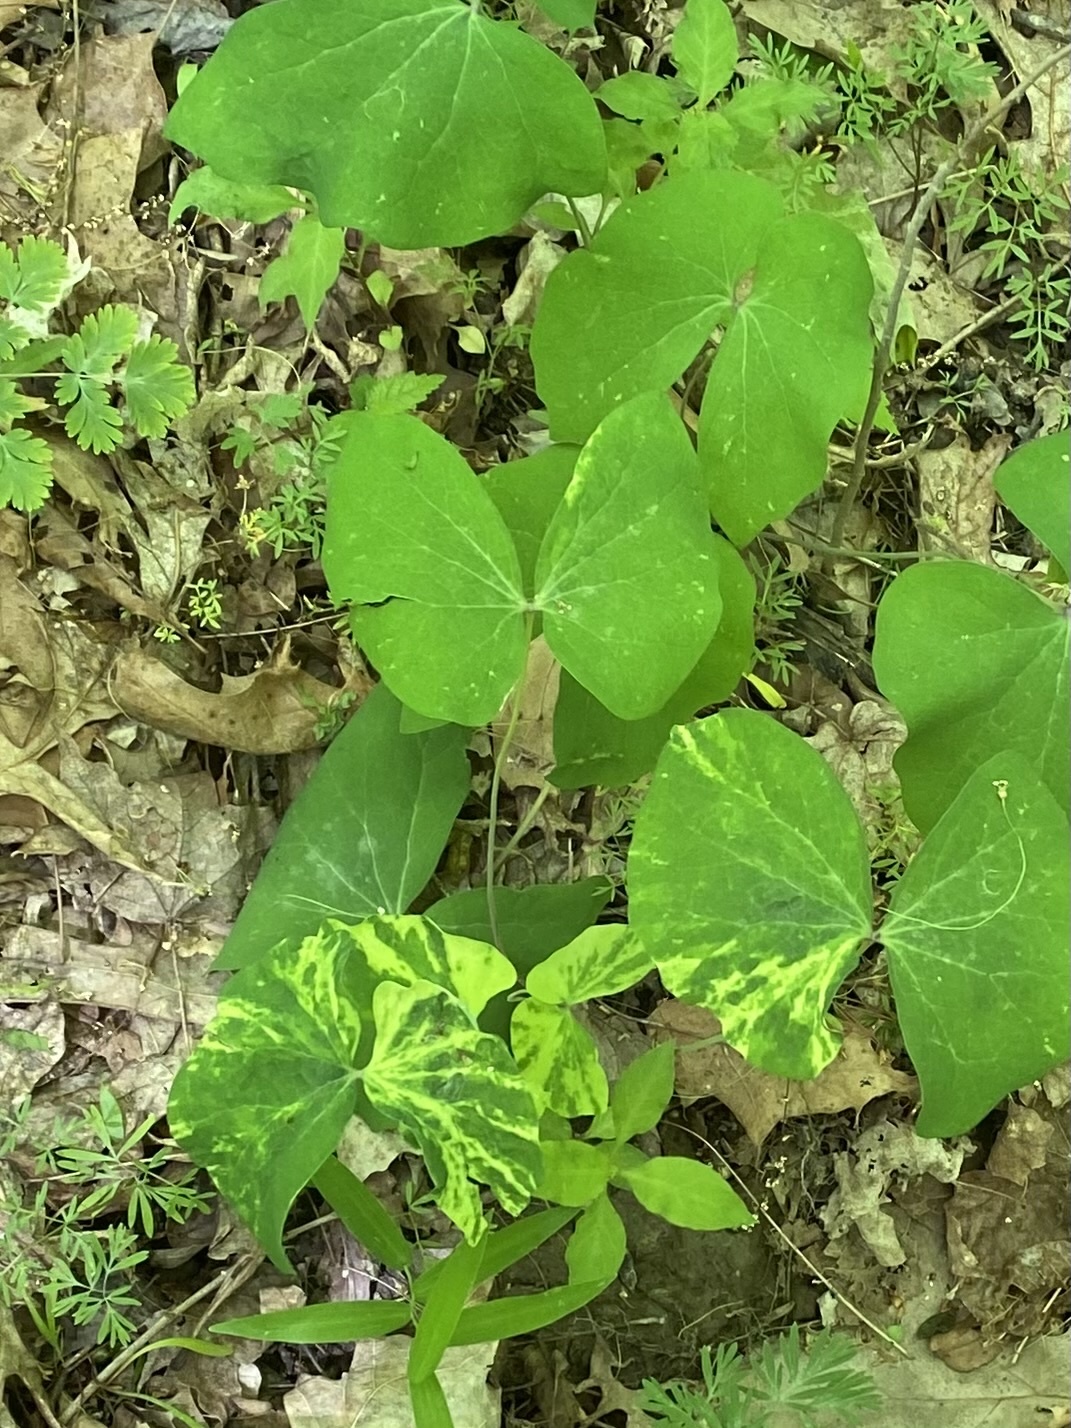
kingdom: Plantae
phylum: Tracheophyta
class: Magnoliopsida
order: Ranunculales
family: Berberidaceae
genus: Jeffersonia
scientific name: Jeffersonia diphylla
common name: Rheumatism-root
